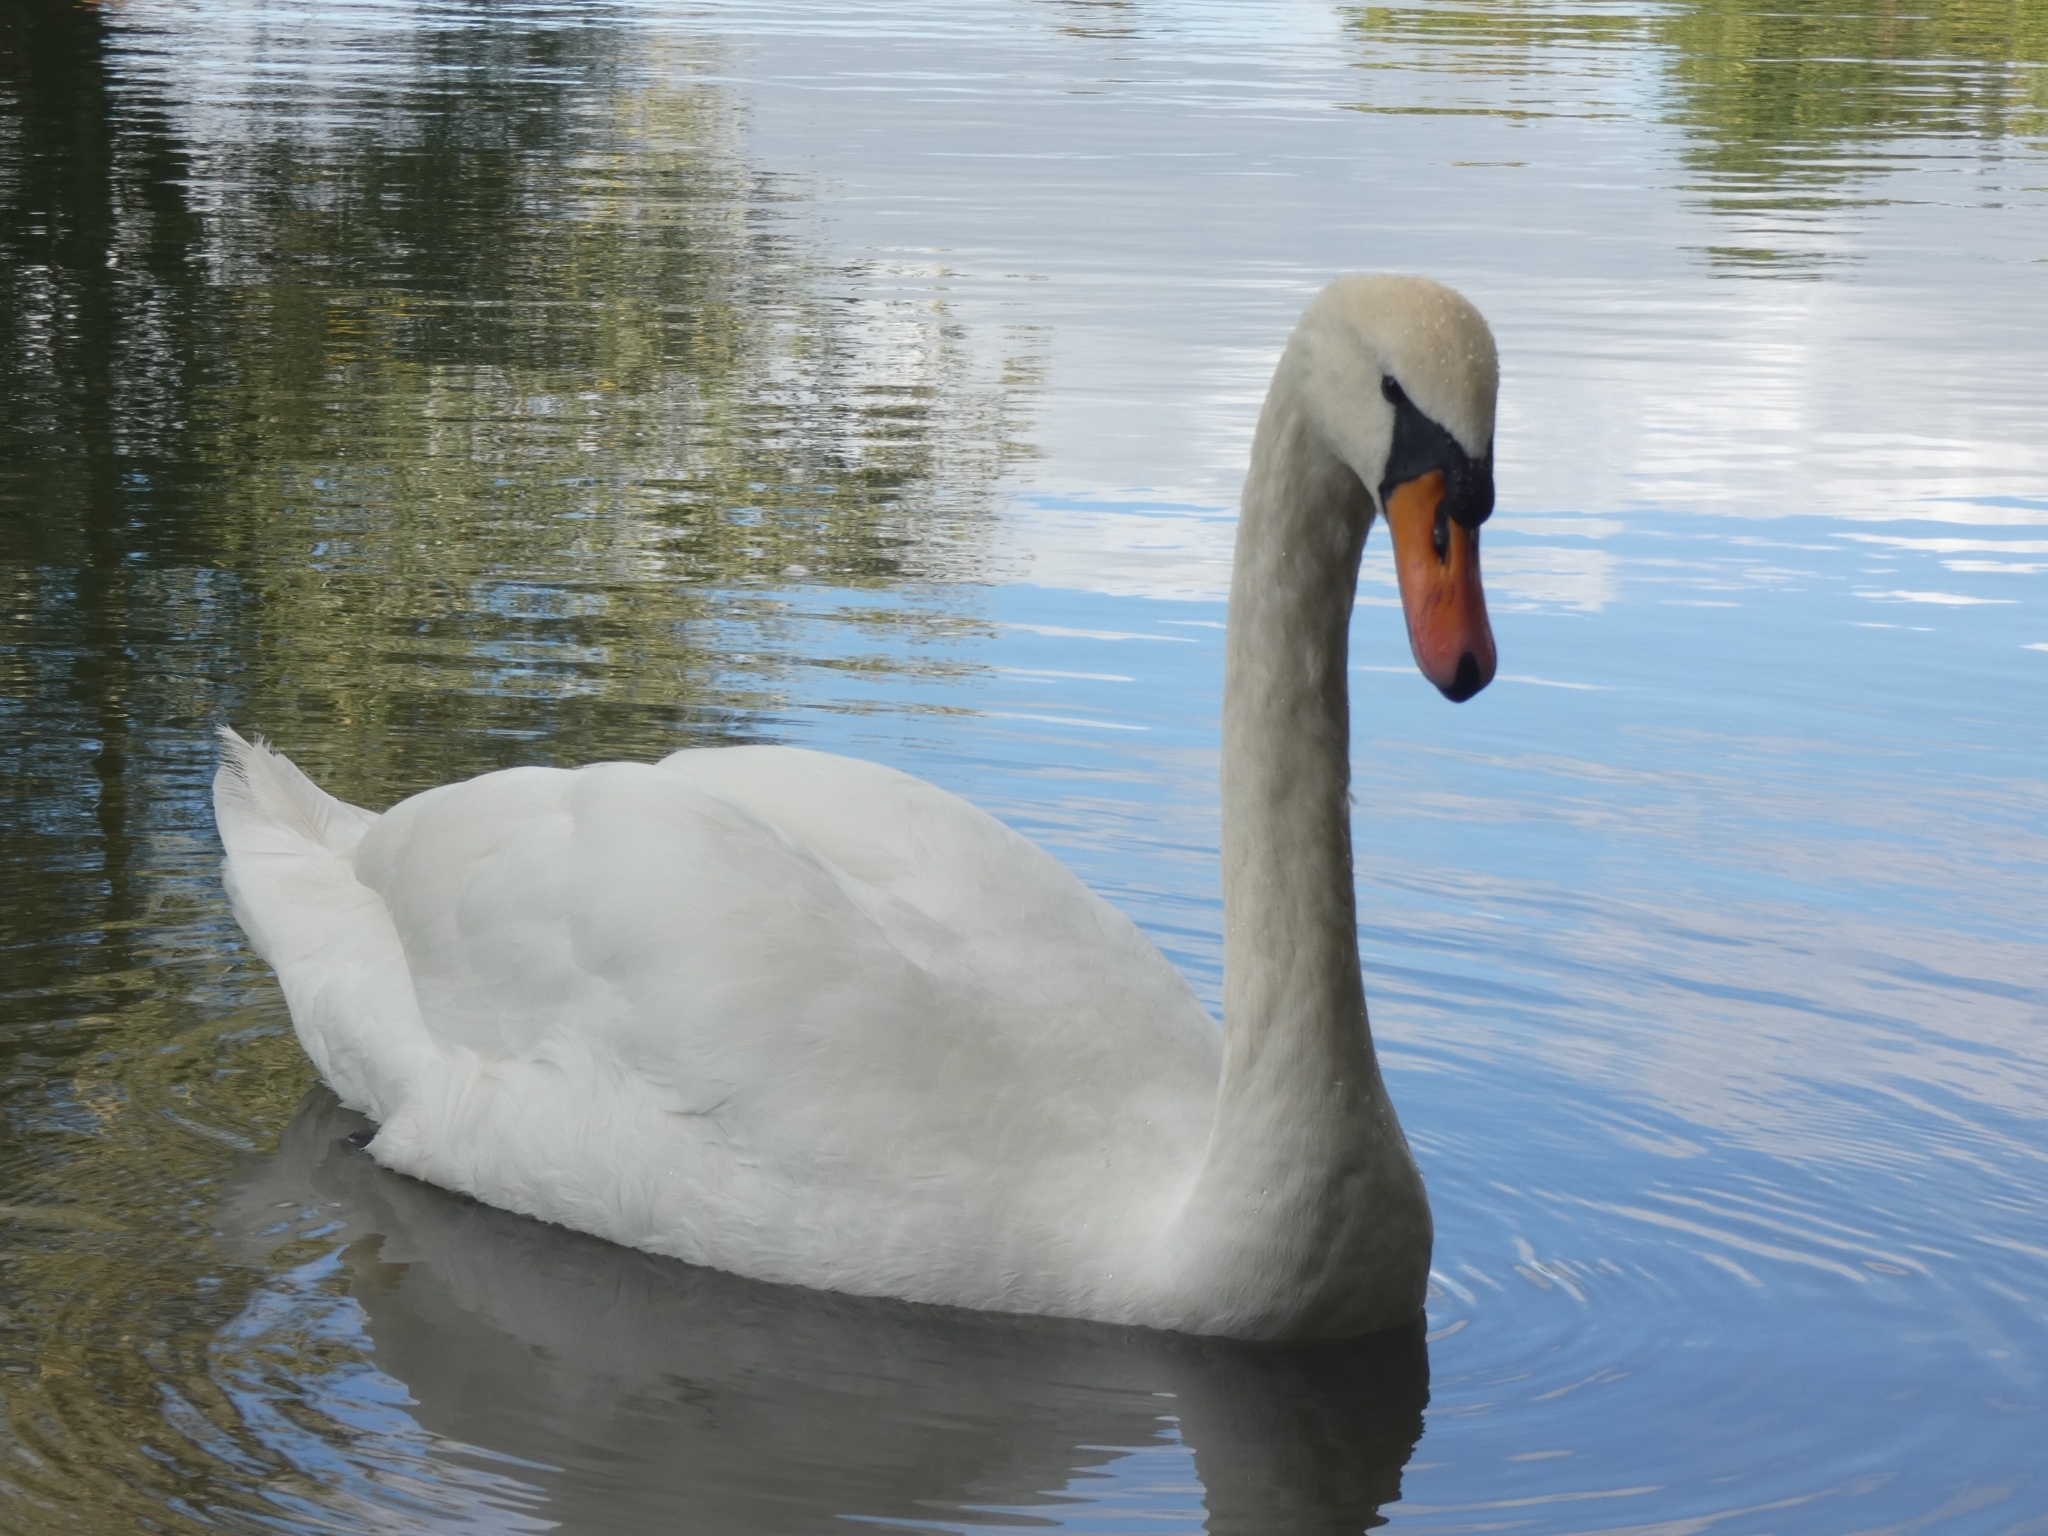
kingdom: Animalia
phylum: Chordata
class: Aves
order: Anseriformes
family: Anatidae
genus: Cygnus
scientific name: Cygnus olor
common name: Mute swan
